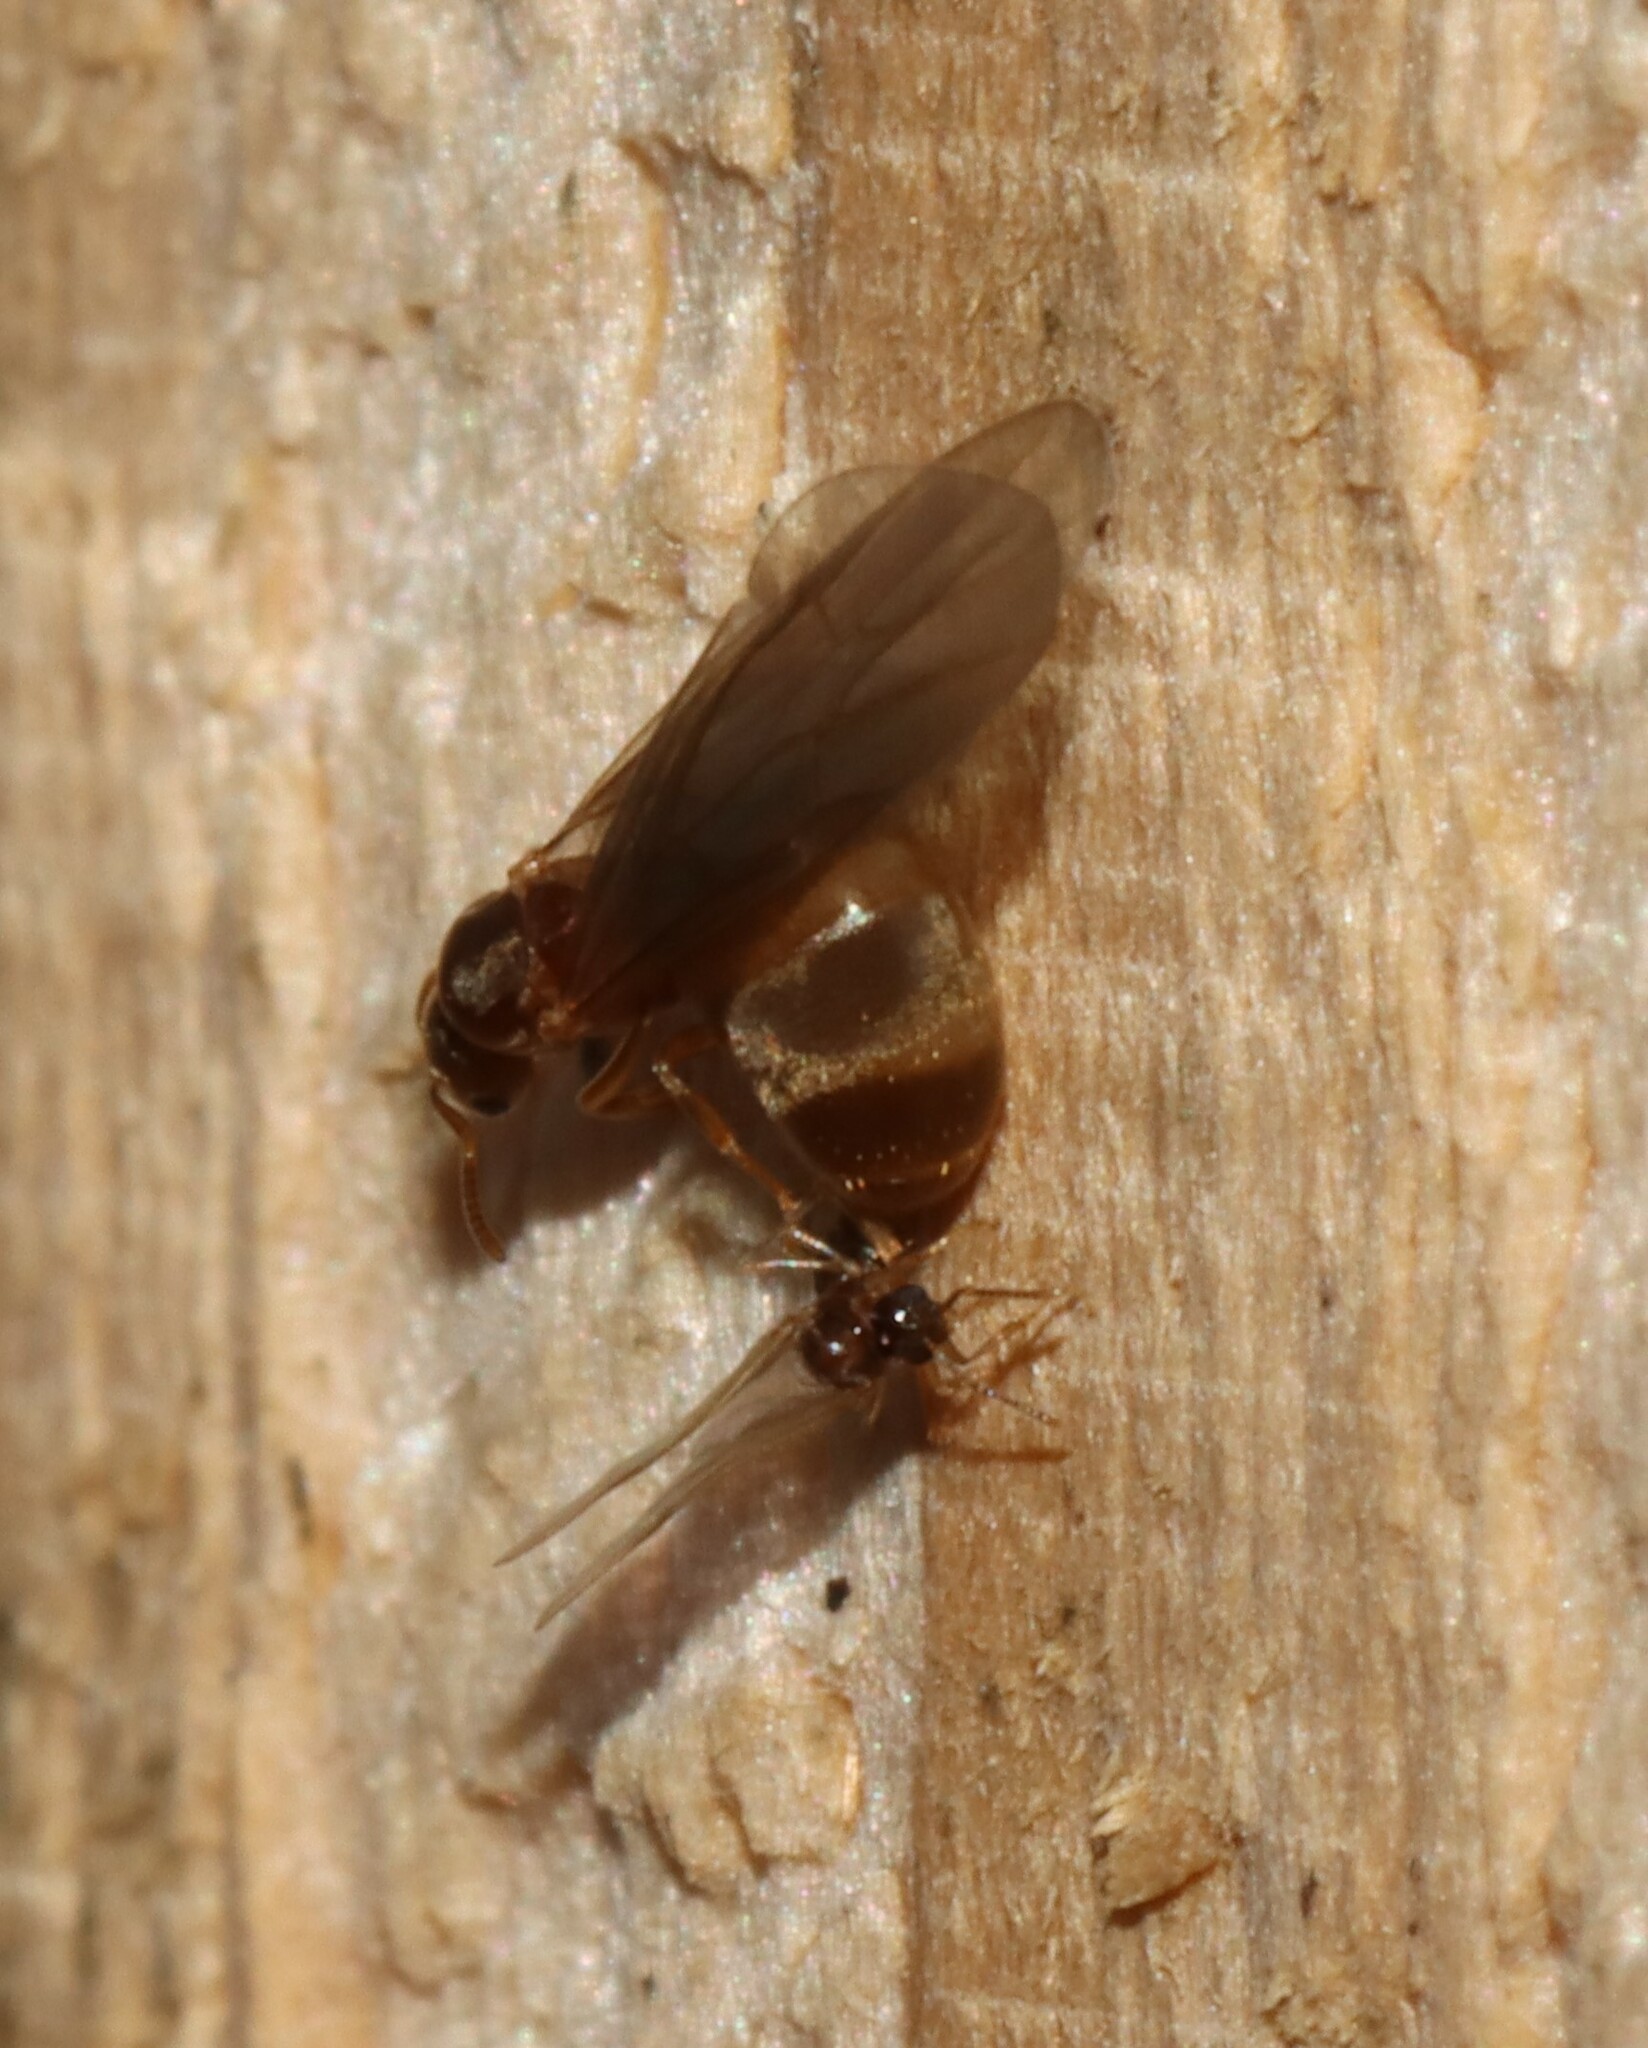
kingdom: Animalia
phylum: Arthropoda
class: Insecta
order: Hymenoptera
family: Formicidae
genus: Brachymyrmex
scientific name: Brachymyrmex depilis
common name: Hairless rover ant
